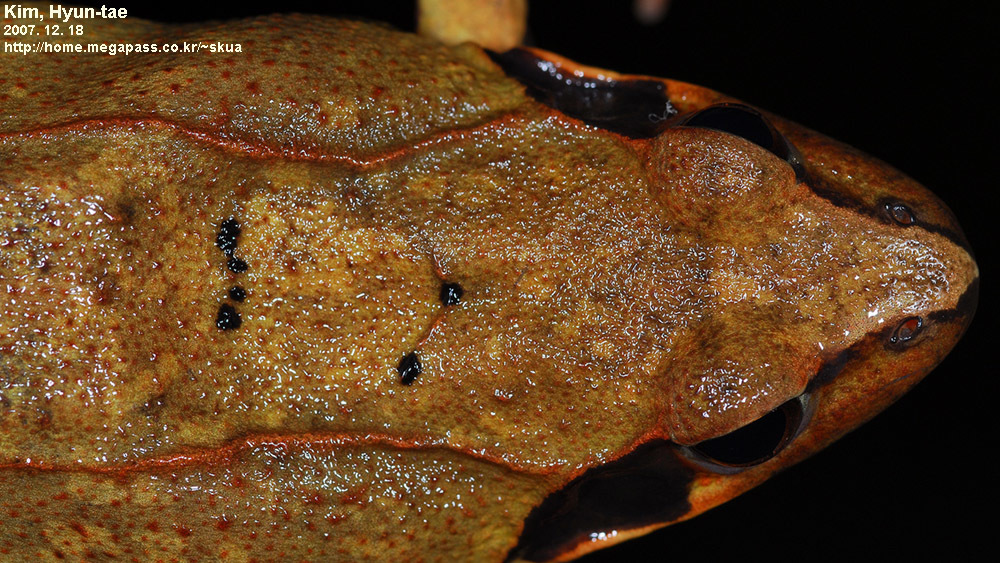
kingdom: Animalia
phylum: Chordata
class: Amphibia
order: Anura
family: Ranidae
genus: Rana
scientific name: Rana uenoi
